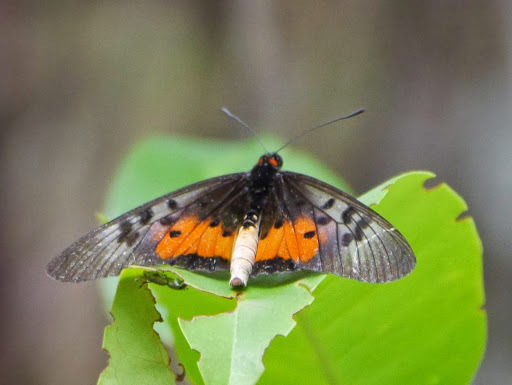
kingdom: Animalia
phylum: Arthropoda
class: Insecta
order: Lepidoptera
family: Nymphalidae
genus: Rubraea
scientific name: Rubraea
